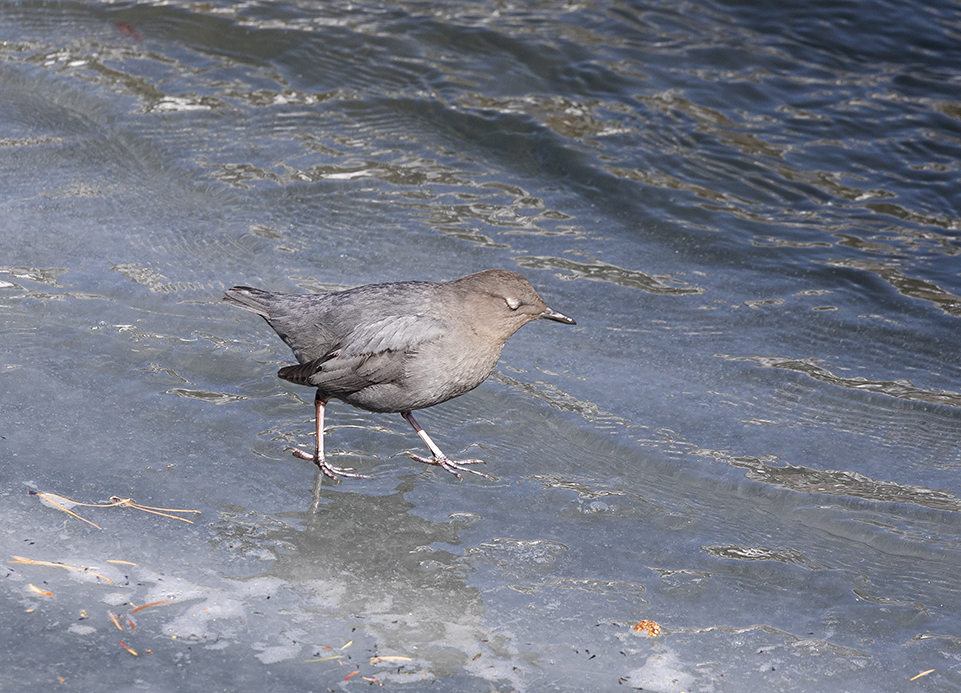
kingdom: Animalia
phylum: Chordata
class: Aves
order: Passeriformes
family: Cinclidae
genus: Cinclus
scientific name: Cinclus mexicanus
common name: American dipper
